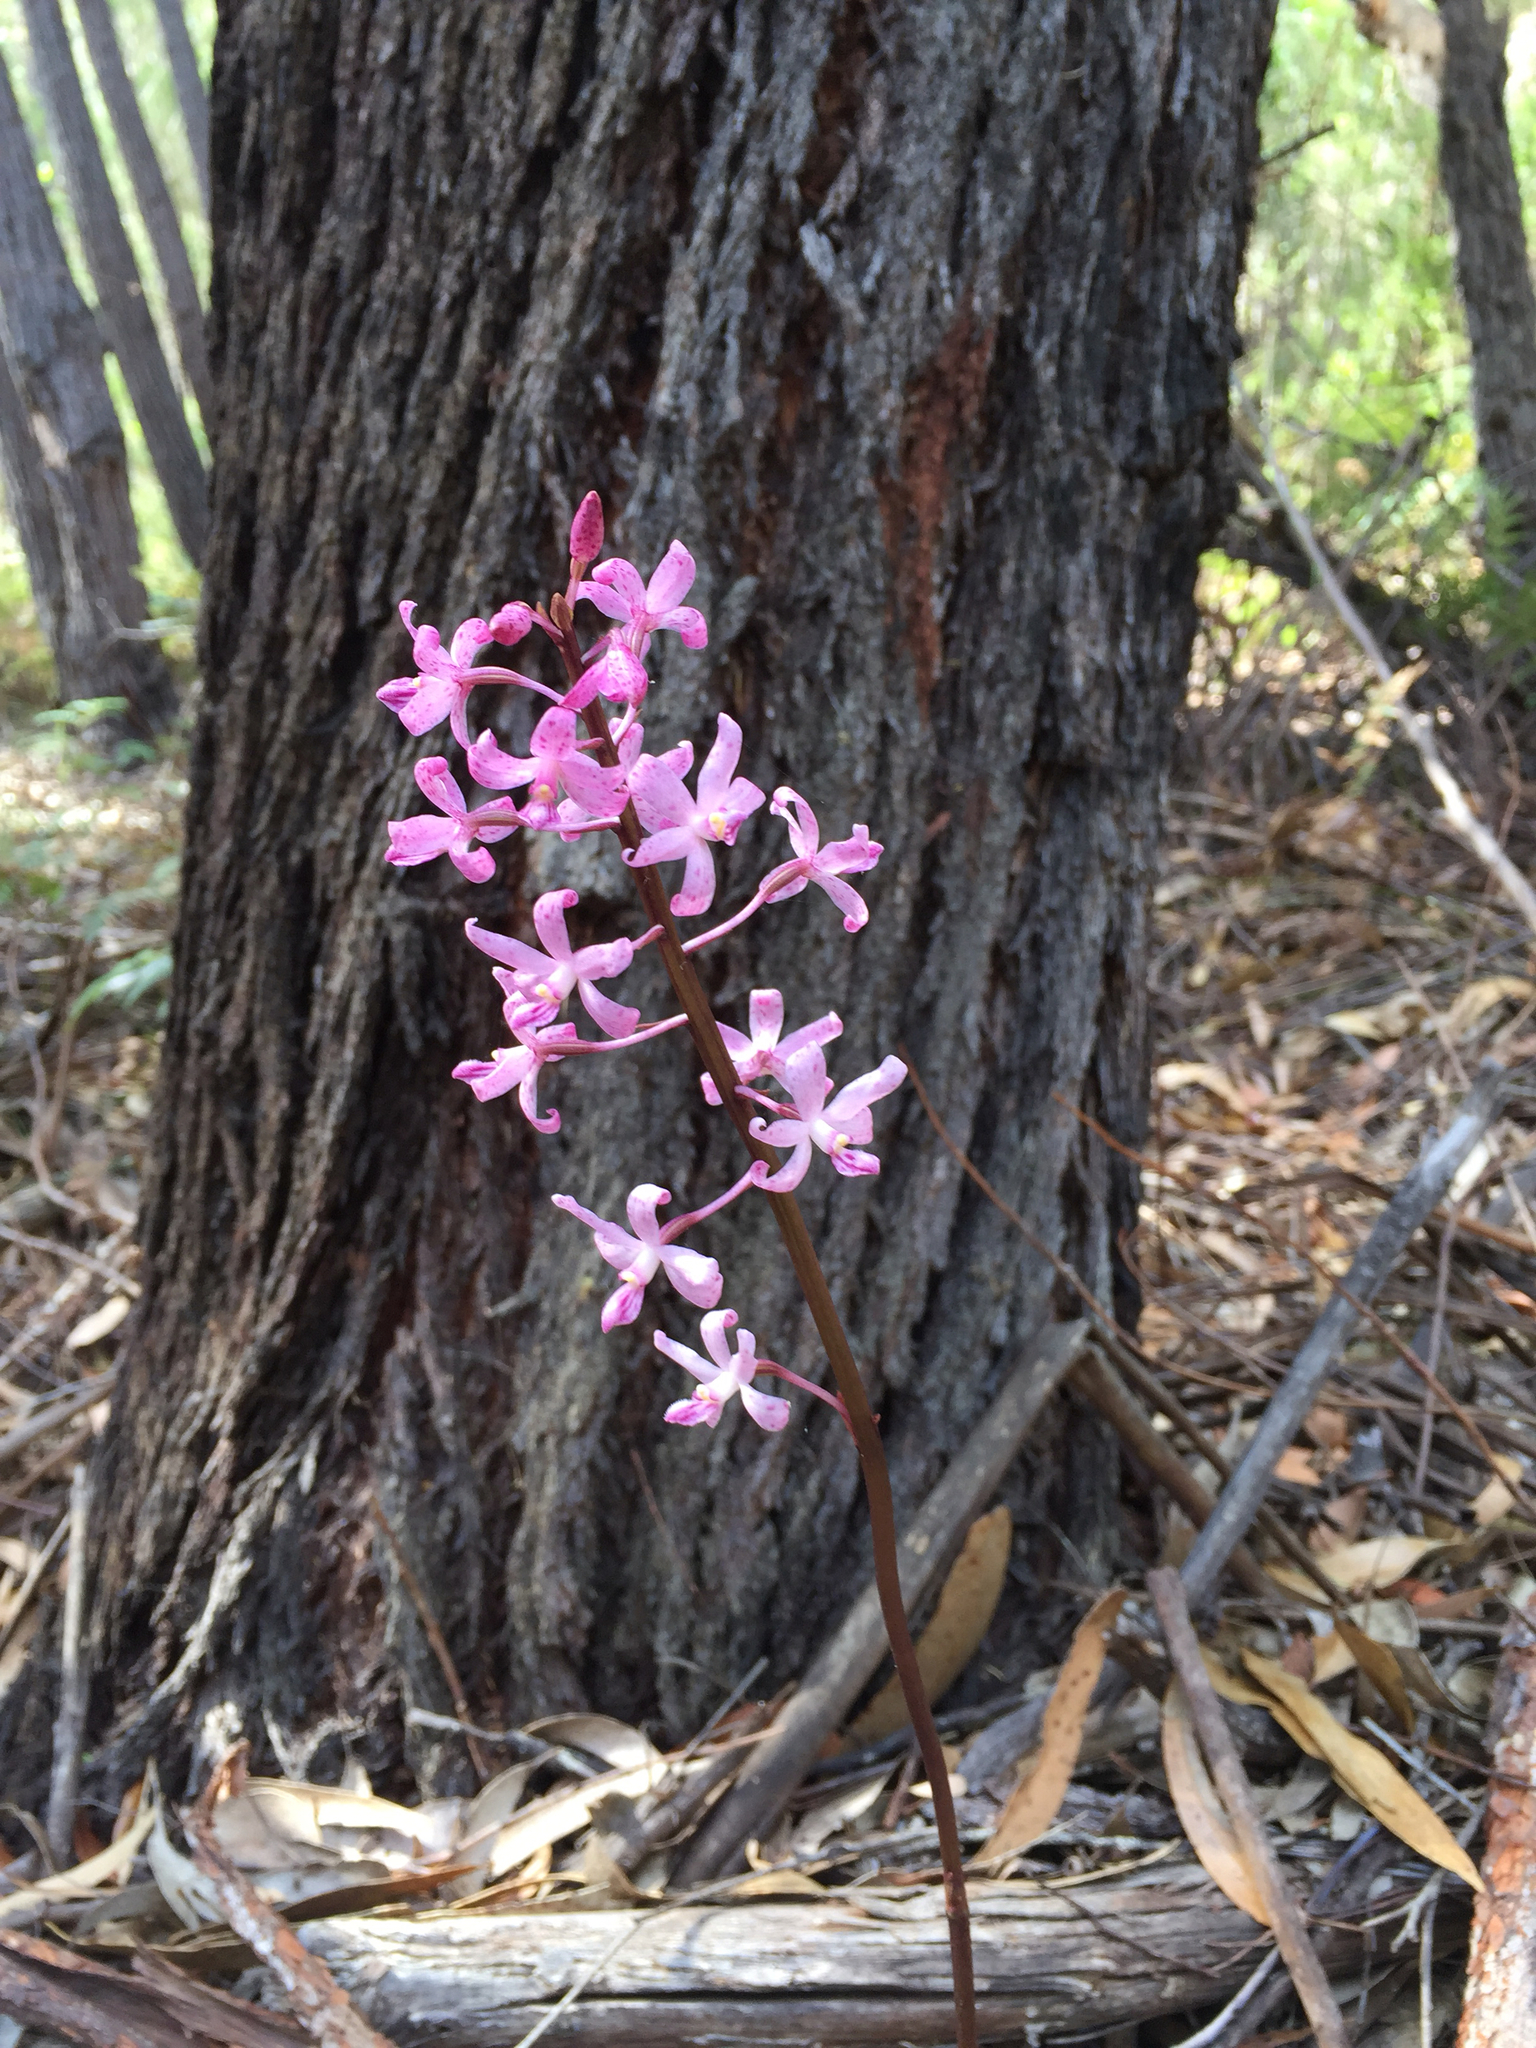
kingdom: Plantae
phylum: Tracheophyta
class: Liliopsida
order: Asparagales
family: Orchidaceae
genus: Dipodium
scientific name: Dipodium roseum
